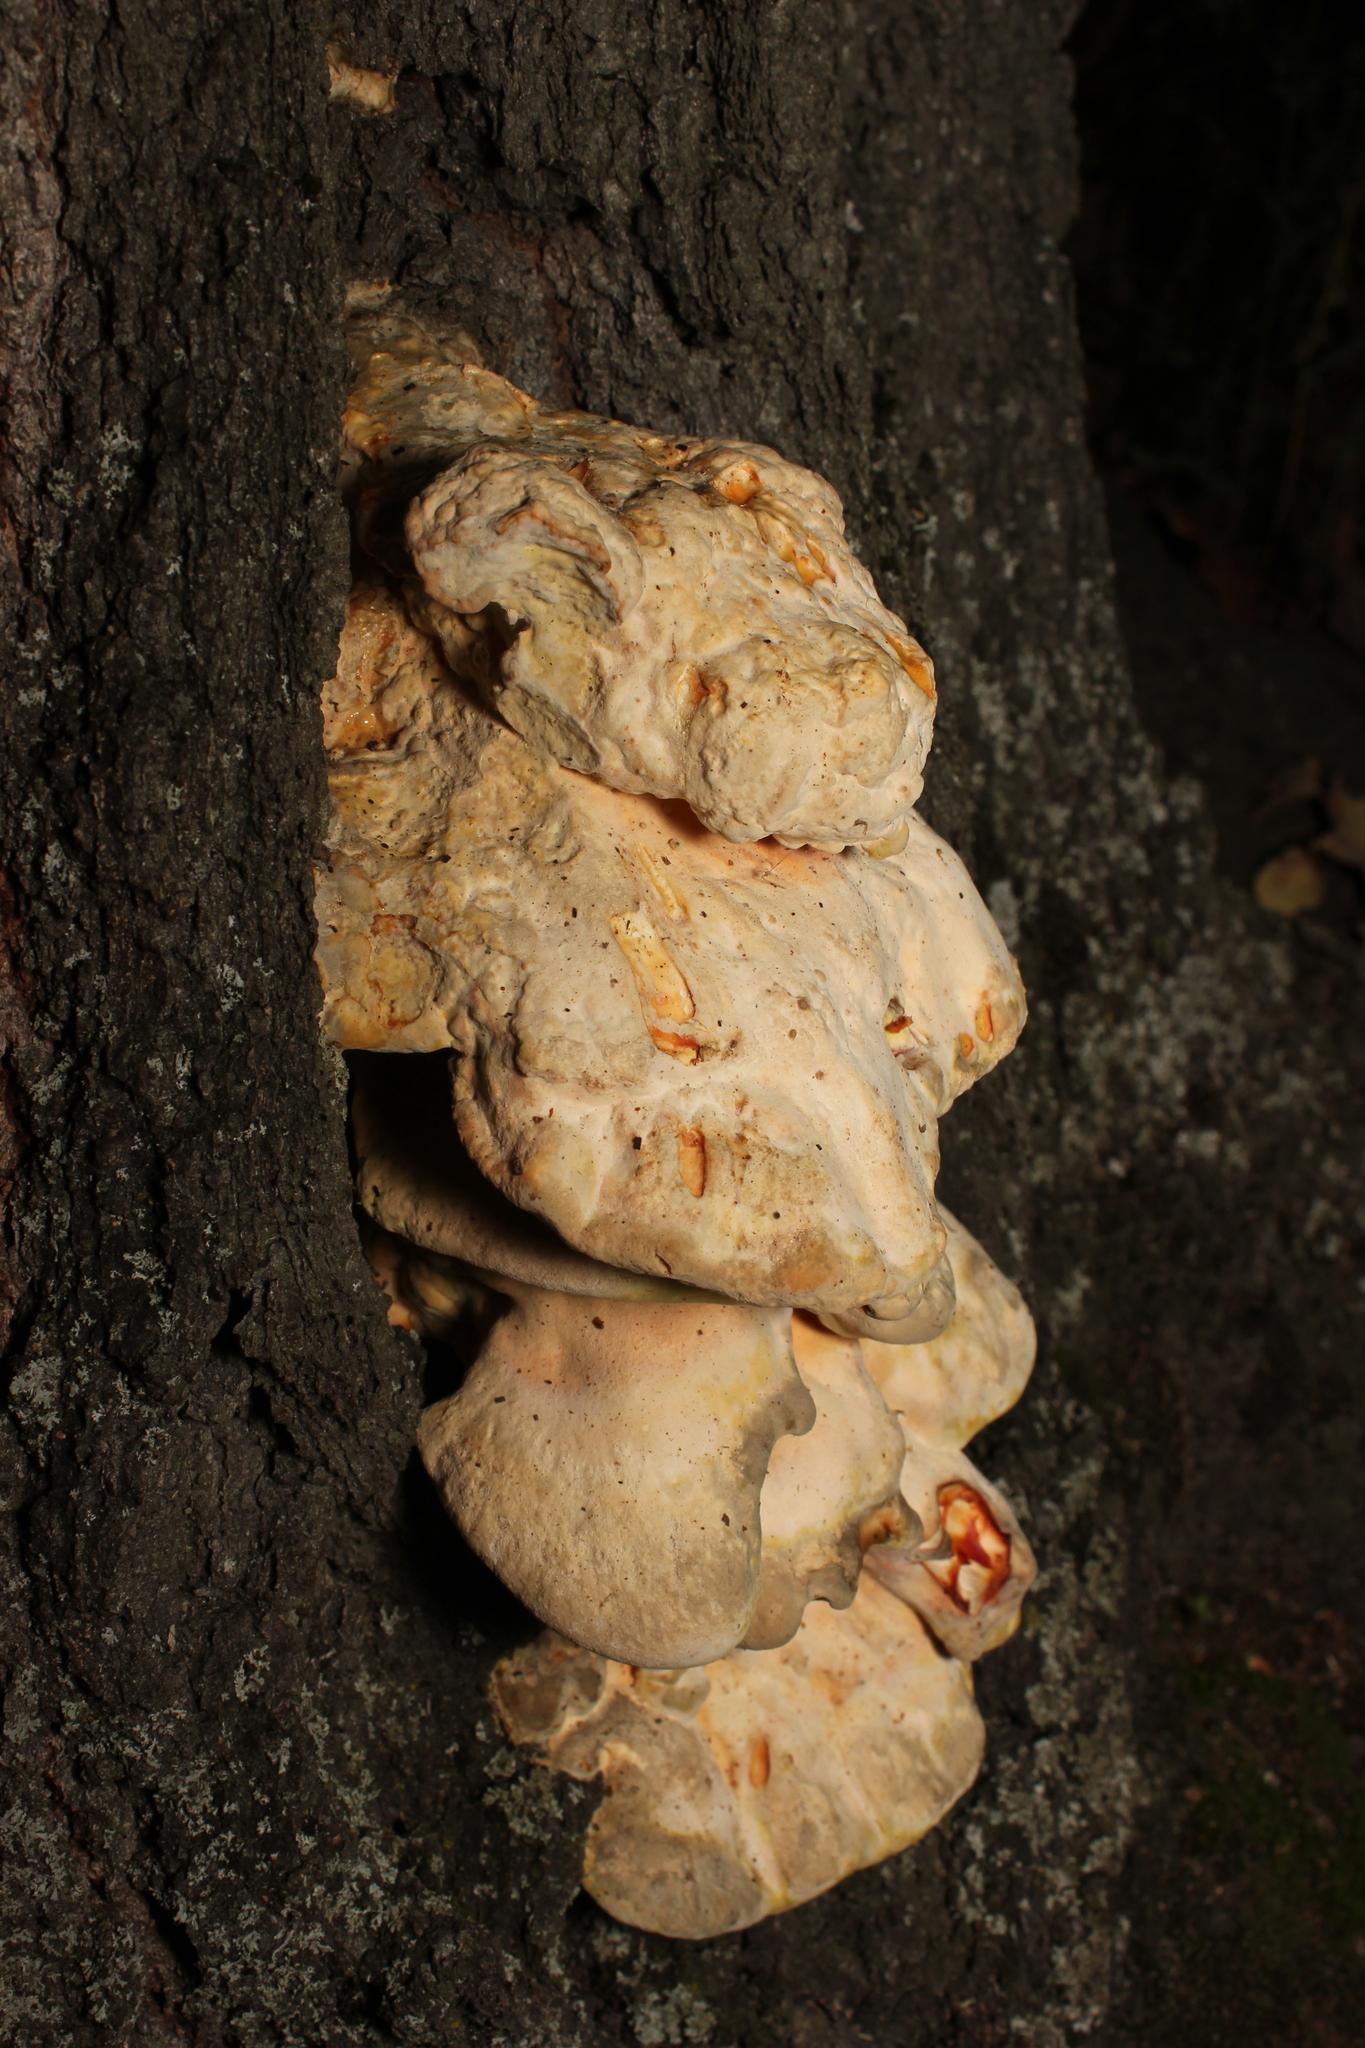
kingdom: Fungi
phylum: Basidiomycota
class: Agaricomycetes
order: Polyporales
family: Laetiporaceae
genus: Laetiporus
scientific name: Laetiporus sulphureus
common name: Chicken of the woods
